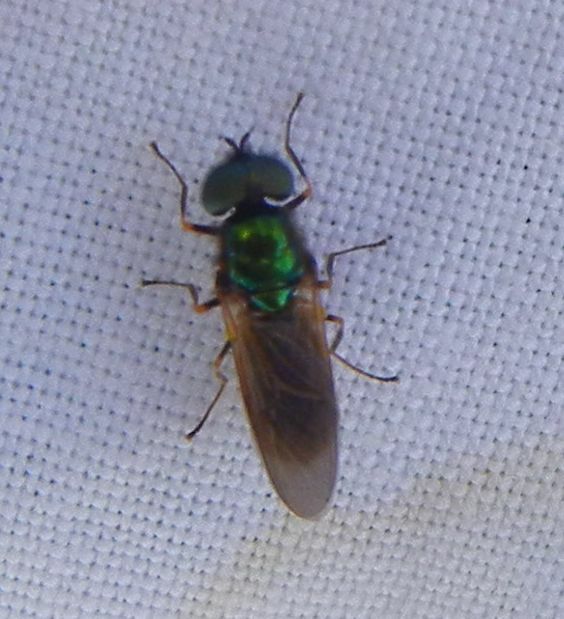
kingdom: Animalia
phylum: Arthropoda
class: Insecta
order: Diptera
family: Stratiomyidae
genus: Chloromyia
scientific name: Chloromyia formosa
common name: Soldier fly
